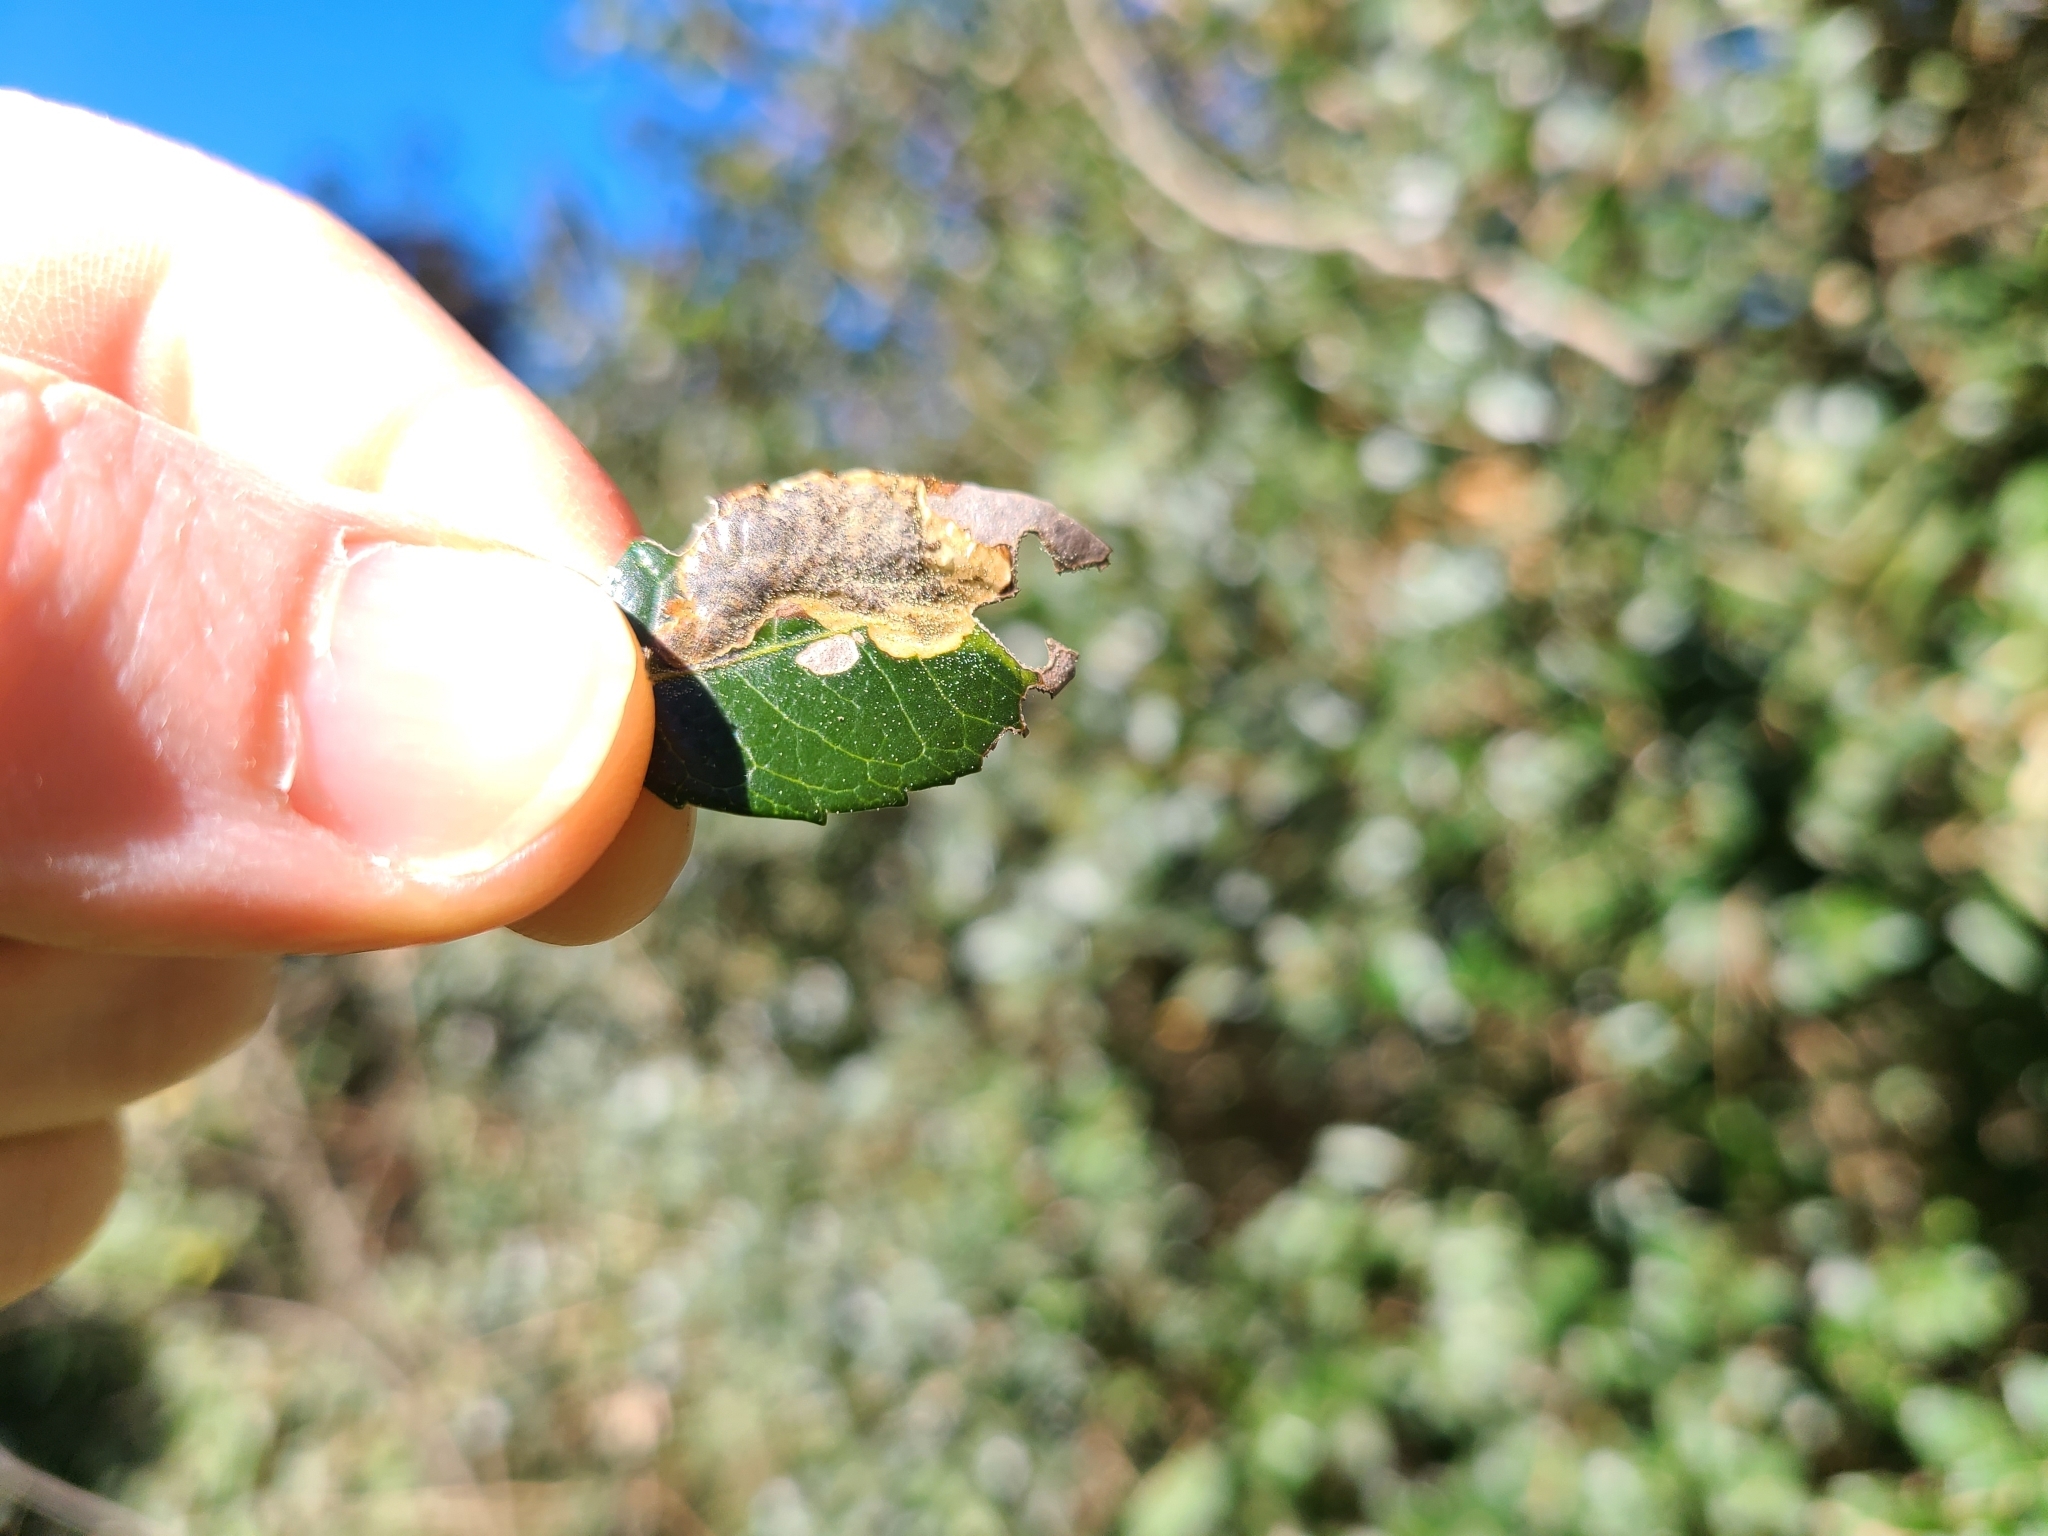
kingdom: Animalia
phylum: Arthropoda
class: Insecta
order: Hymenoptera
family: Tenthredinidae
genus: Silliana
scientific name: Silliana lhommei
